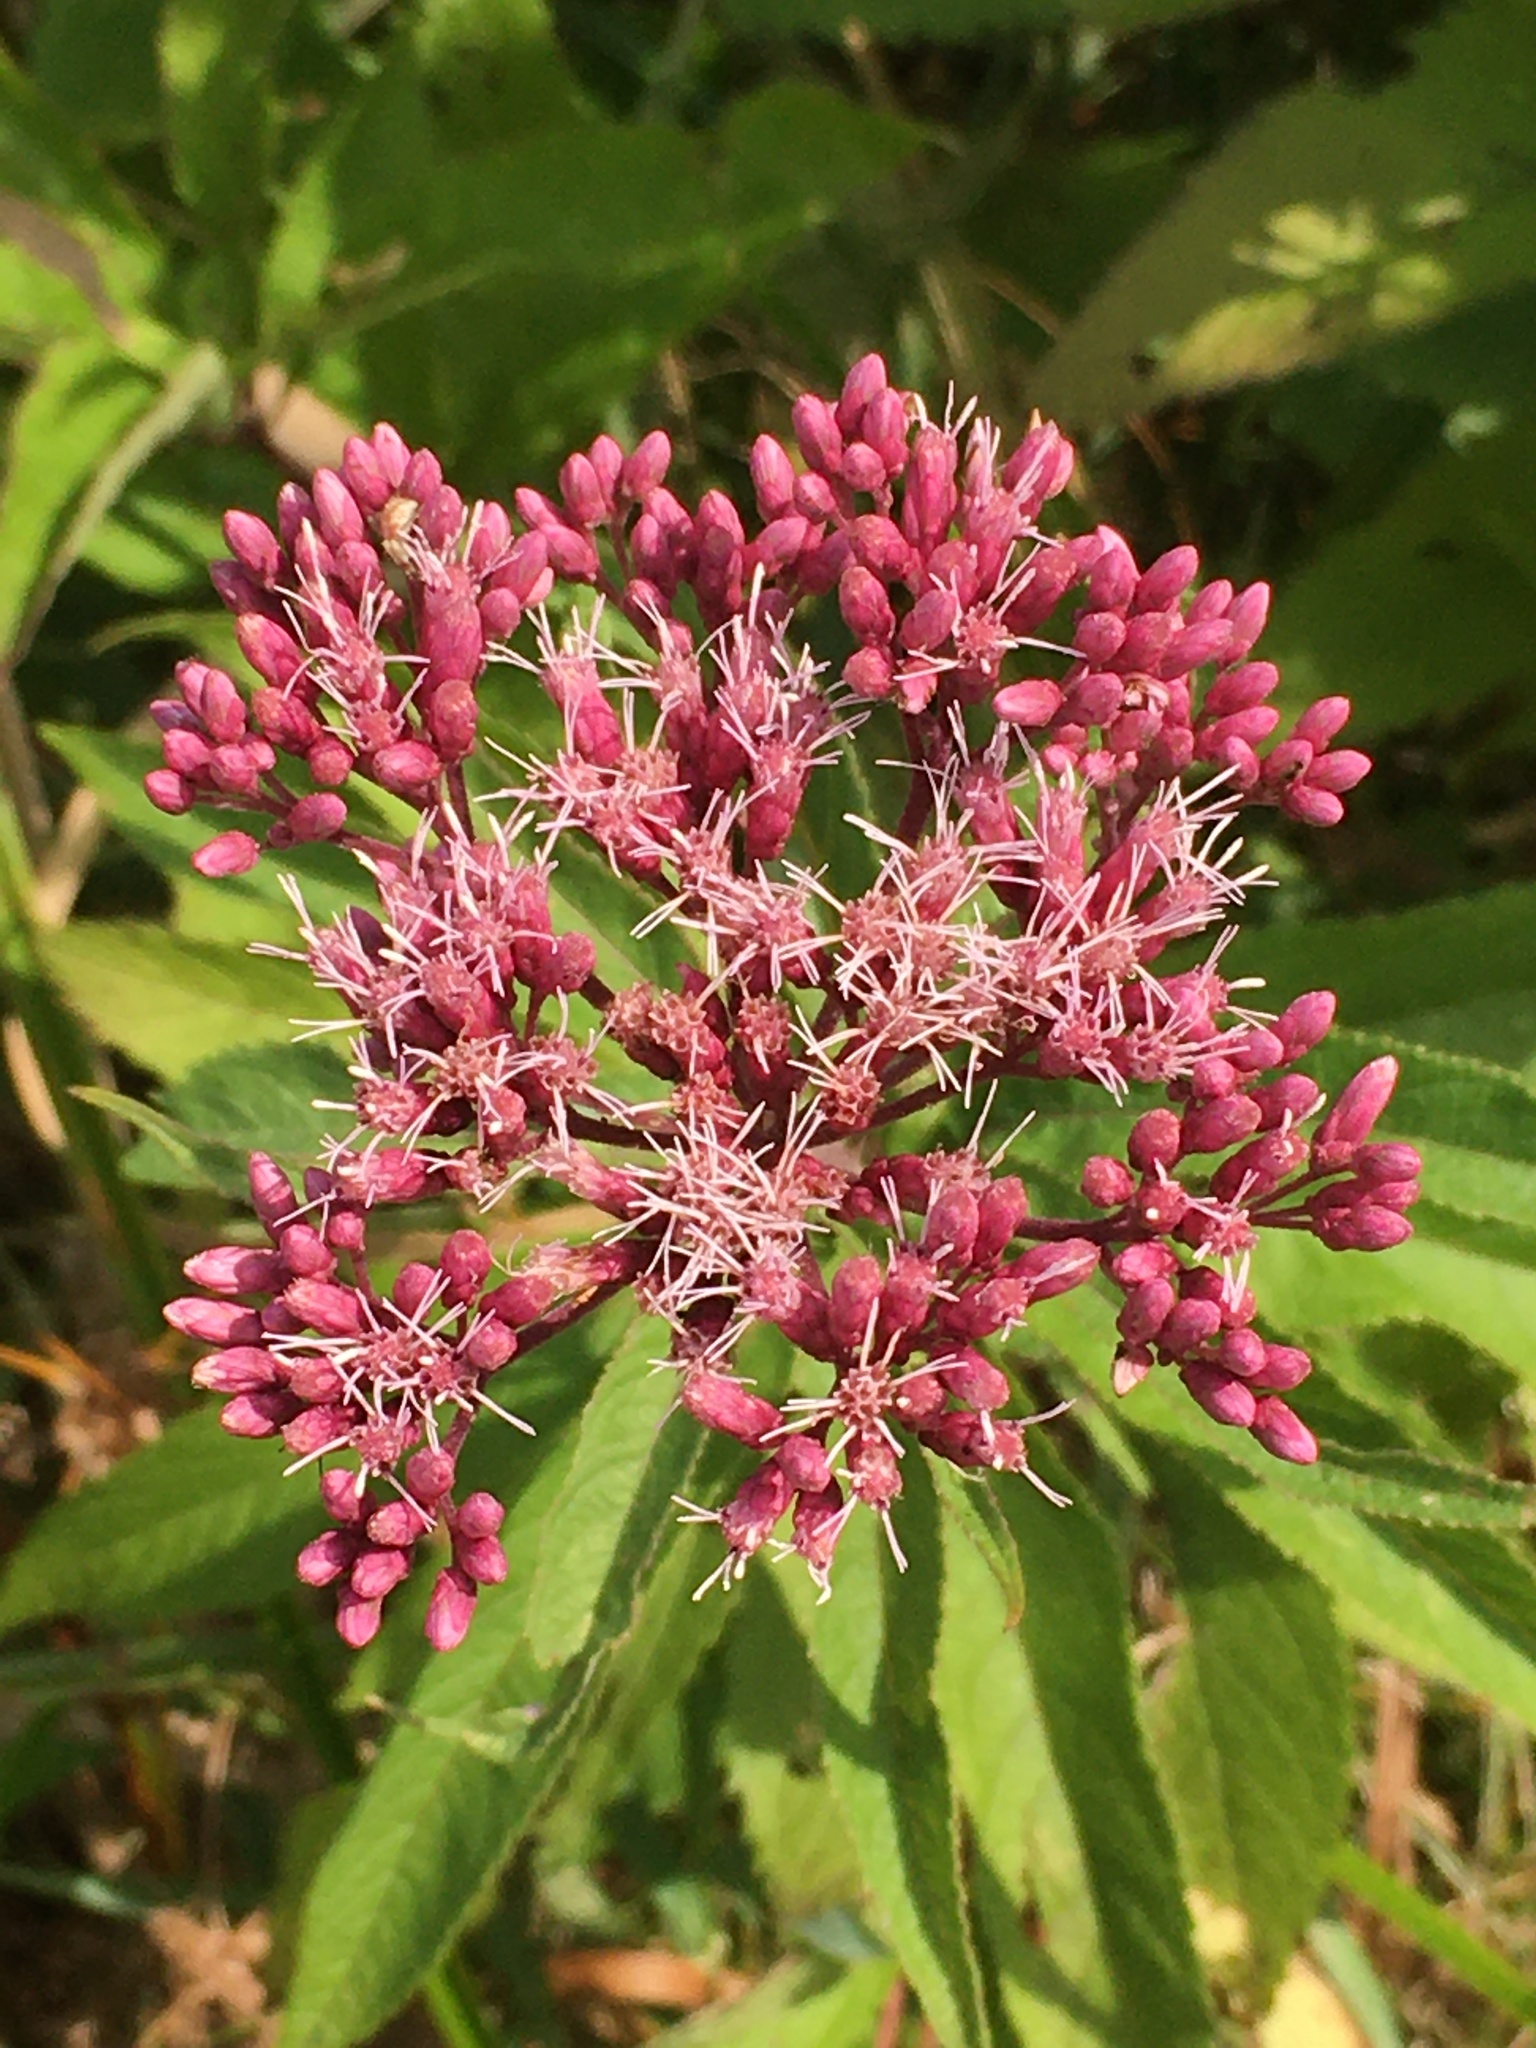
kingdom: Plantae
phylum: Tracheophyta
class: Magnoliopsida
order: Asterales
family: Asteraceae
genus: Eutrochium
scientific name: Eutrochium maculatum
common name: Spotted joe pye weed
